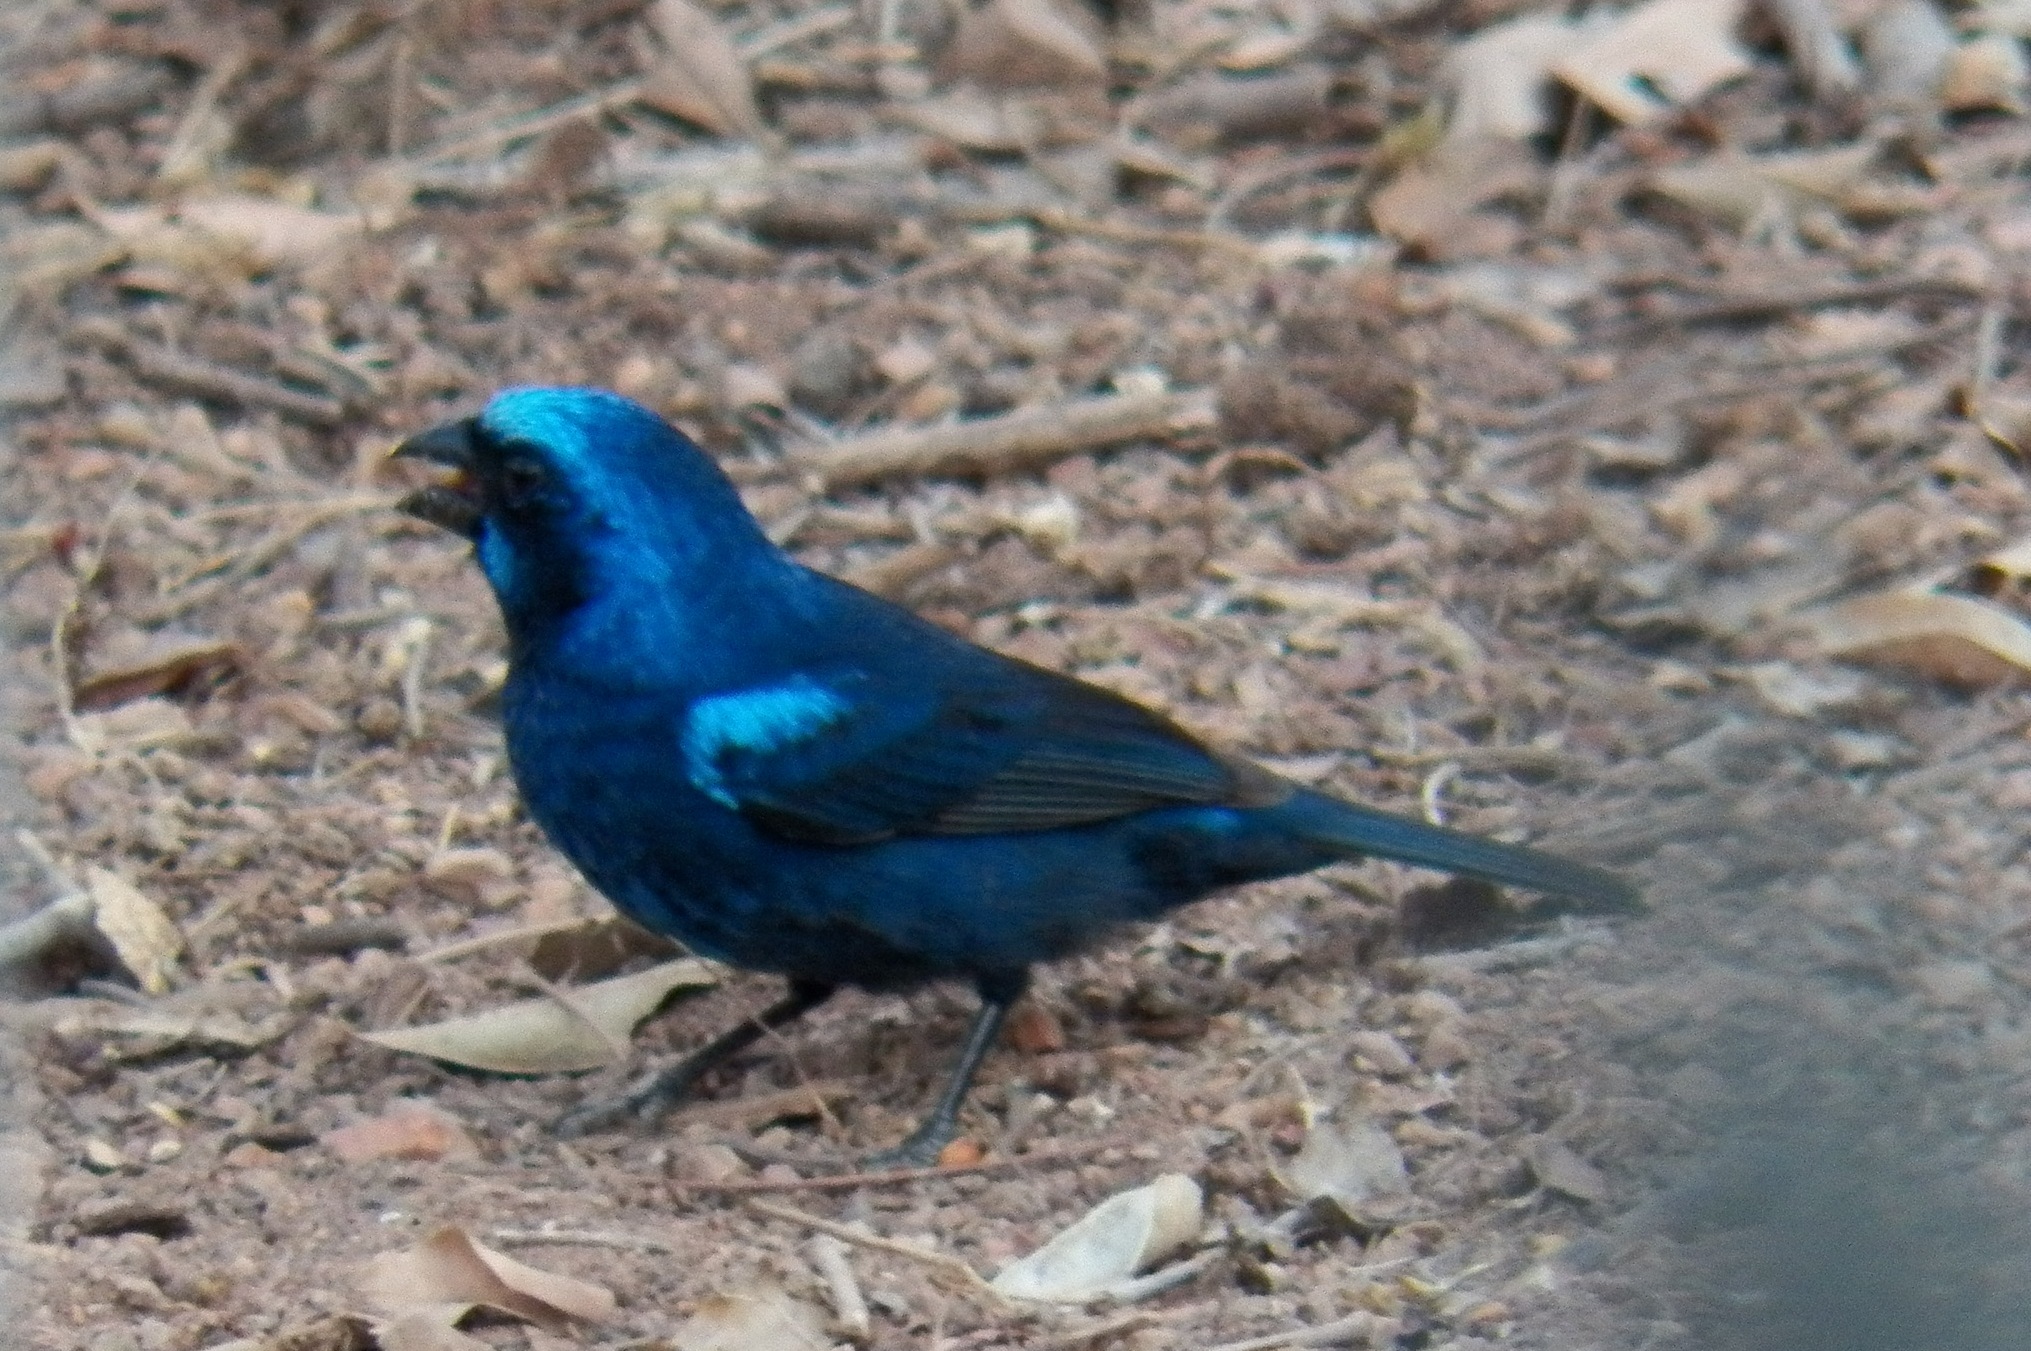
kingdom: Animalia
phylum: Chordata
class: Aves
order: Passeriformes
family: Cardinalidae
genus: Cyanocompsa
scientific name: Cyanocompsa parellina
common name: Blue bunting
